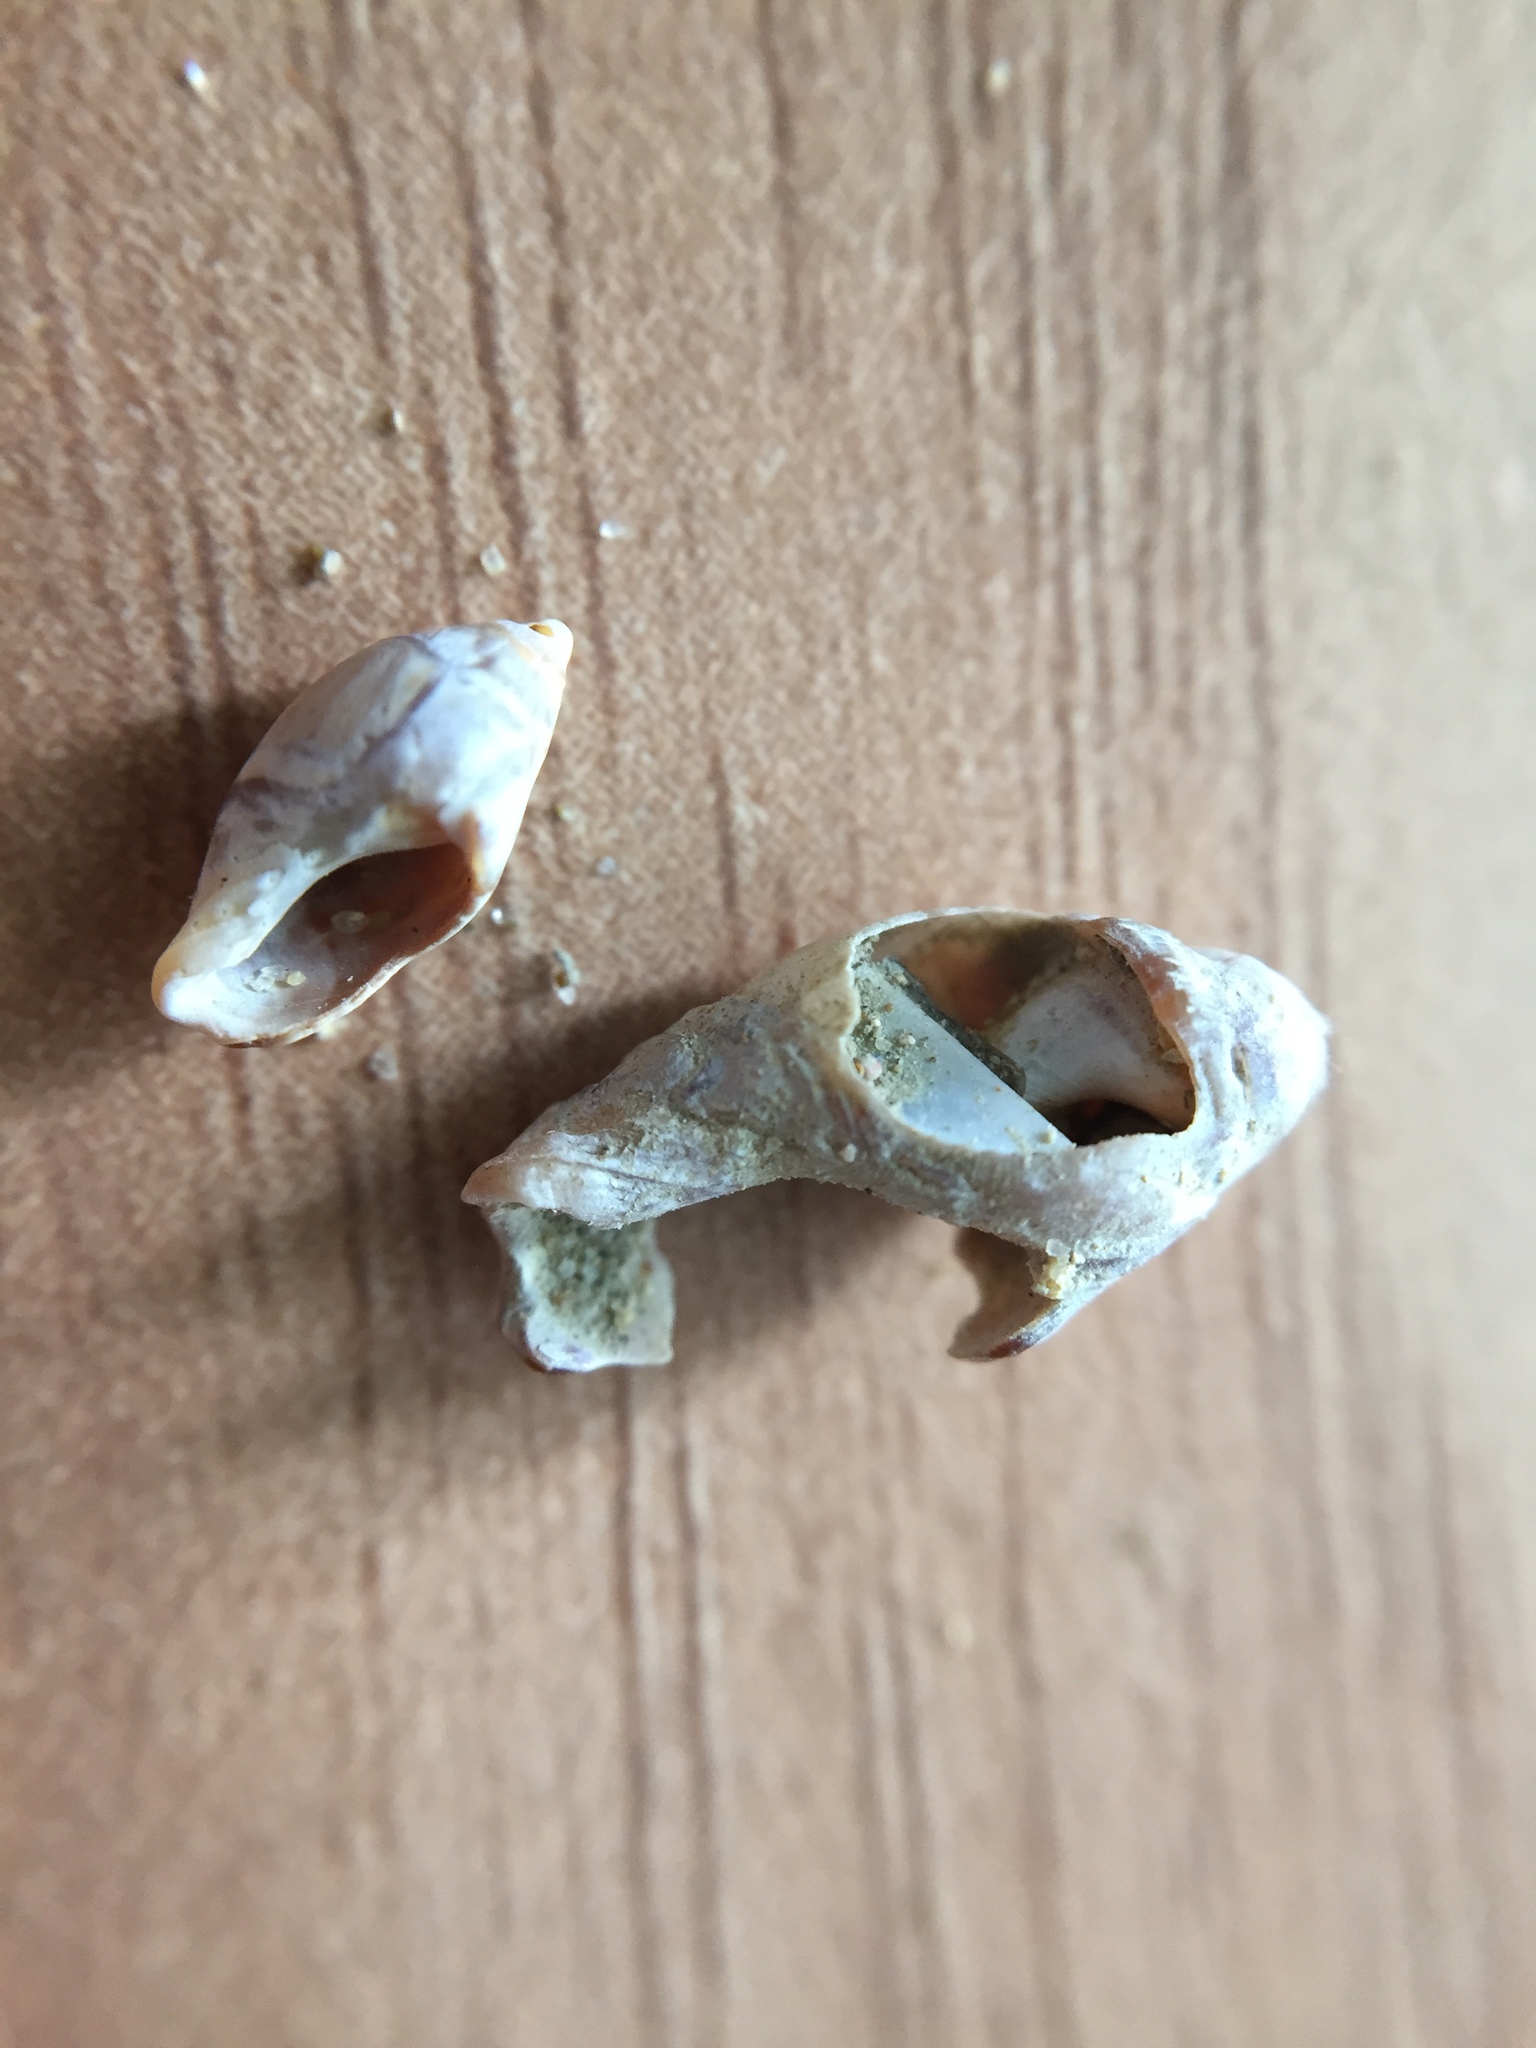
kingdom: Animalia
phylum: Mollusca
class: Gastropoda
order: Neogastropoda
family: Ancillariidae
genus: Amalda
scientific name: Amalda australis
